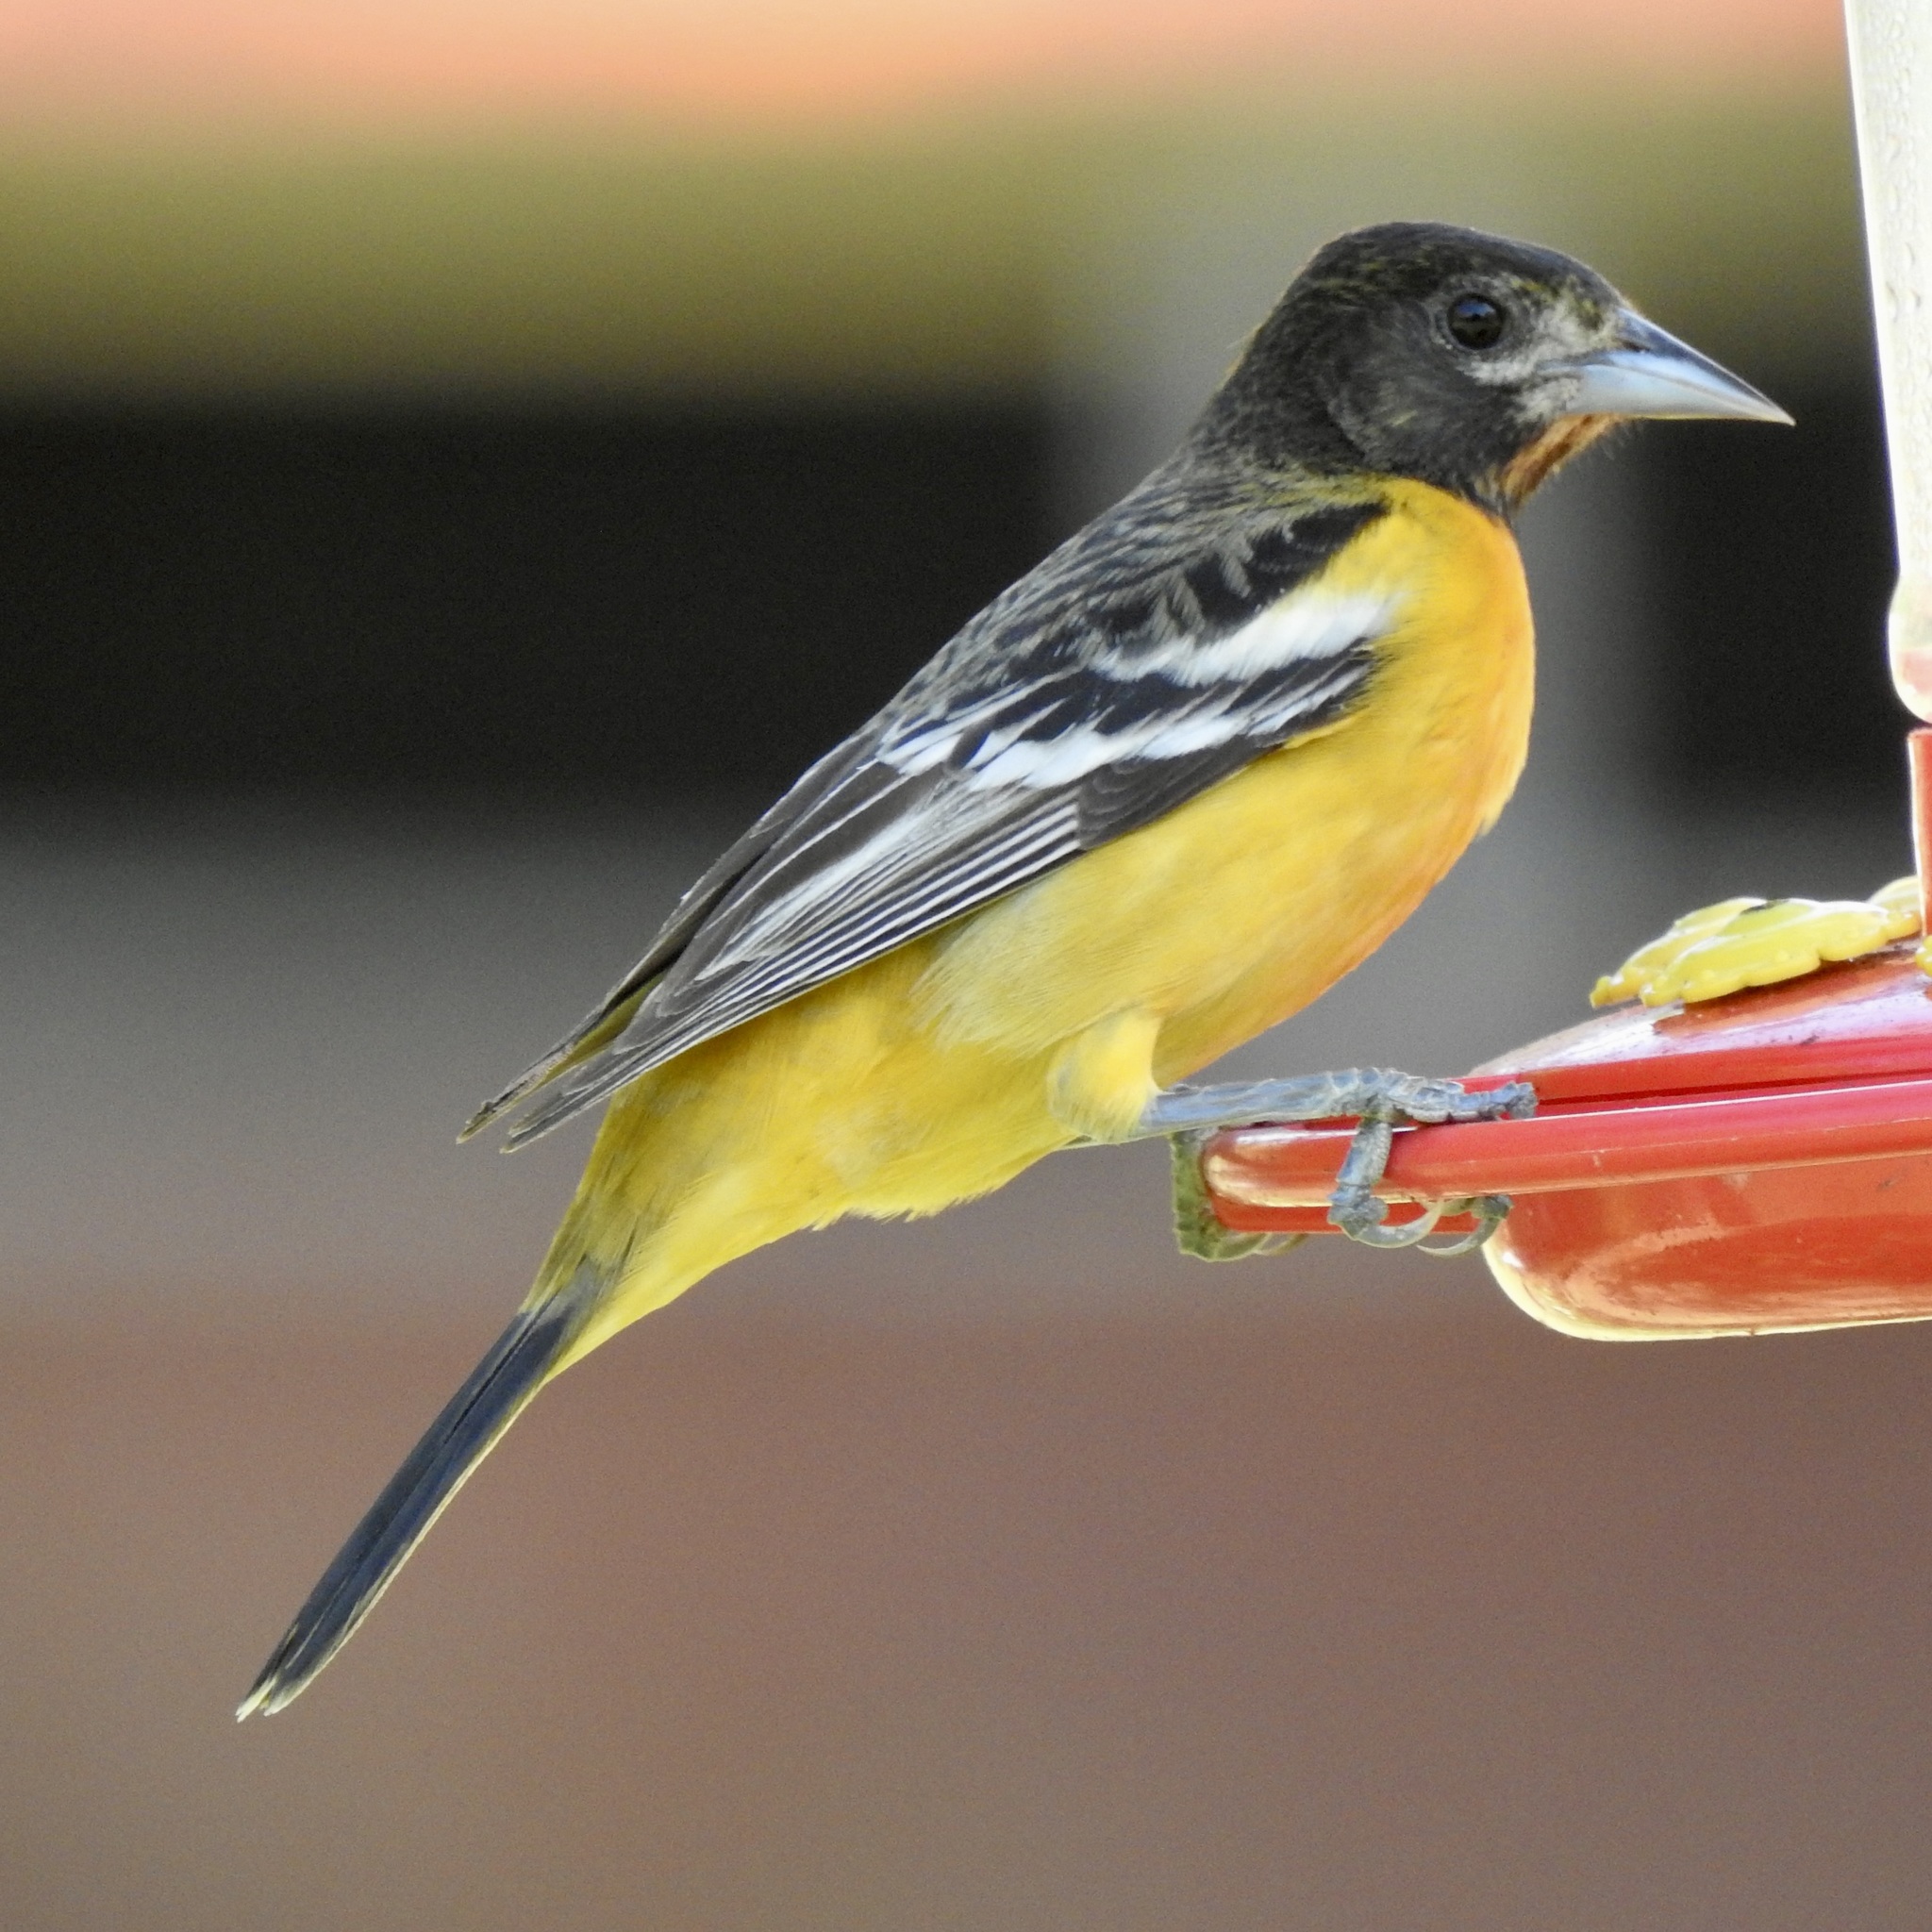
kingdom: Animalia
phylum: Chordata
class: Aves
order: Passeriformes
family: Icteridae
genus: Icterus
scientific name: Icterus galbula
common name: Baltimore oriole
